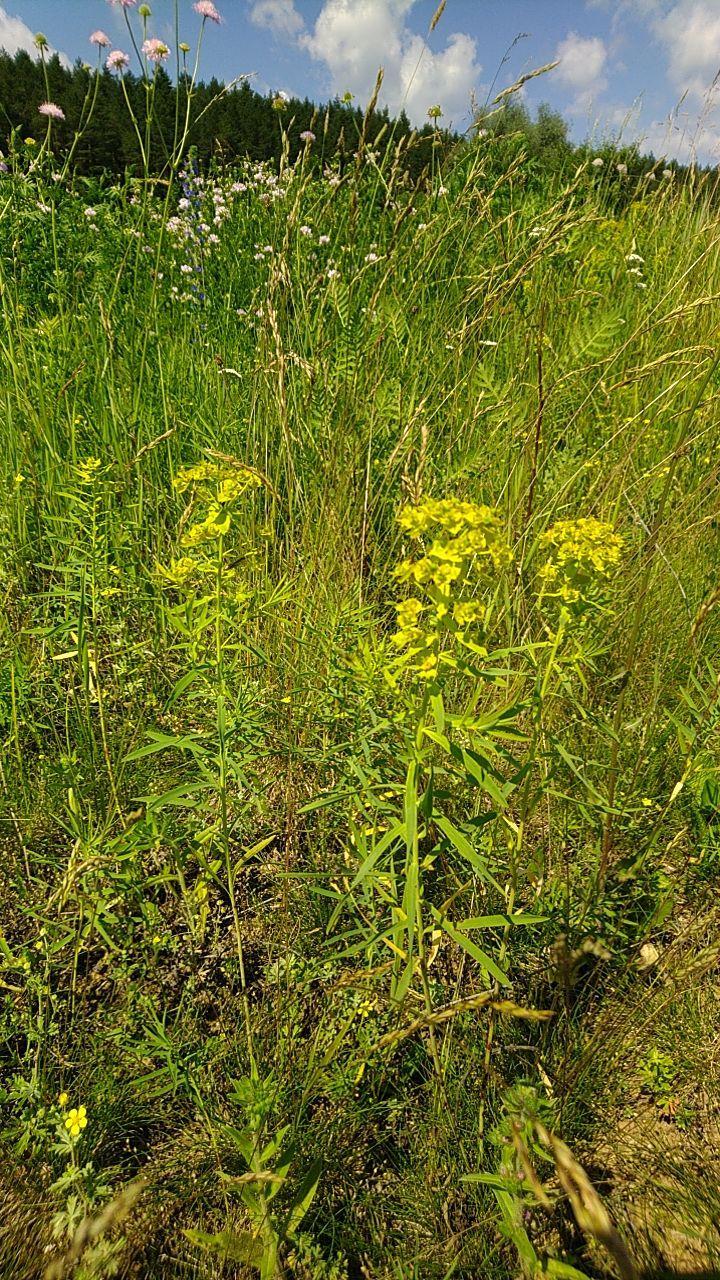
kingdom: Plantae
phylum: Tracheophyta
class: Magnoliopsida
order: Malpighiales
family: Euphorbiaceae
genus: Euphorbia
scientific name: Euphorbia virgata
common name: Leafy spurge
